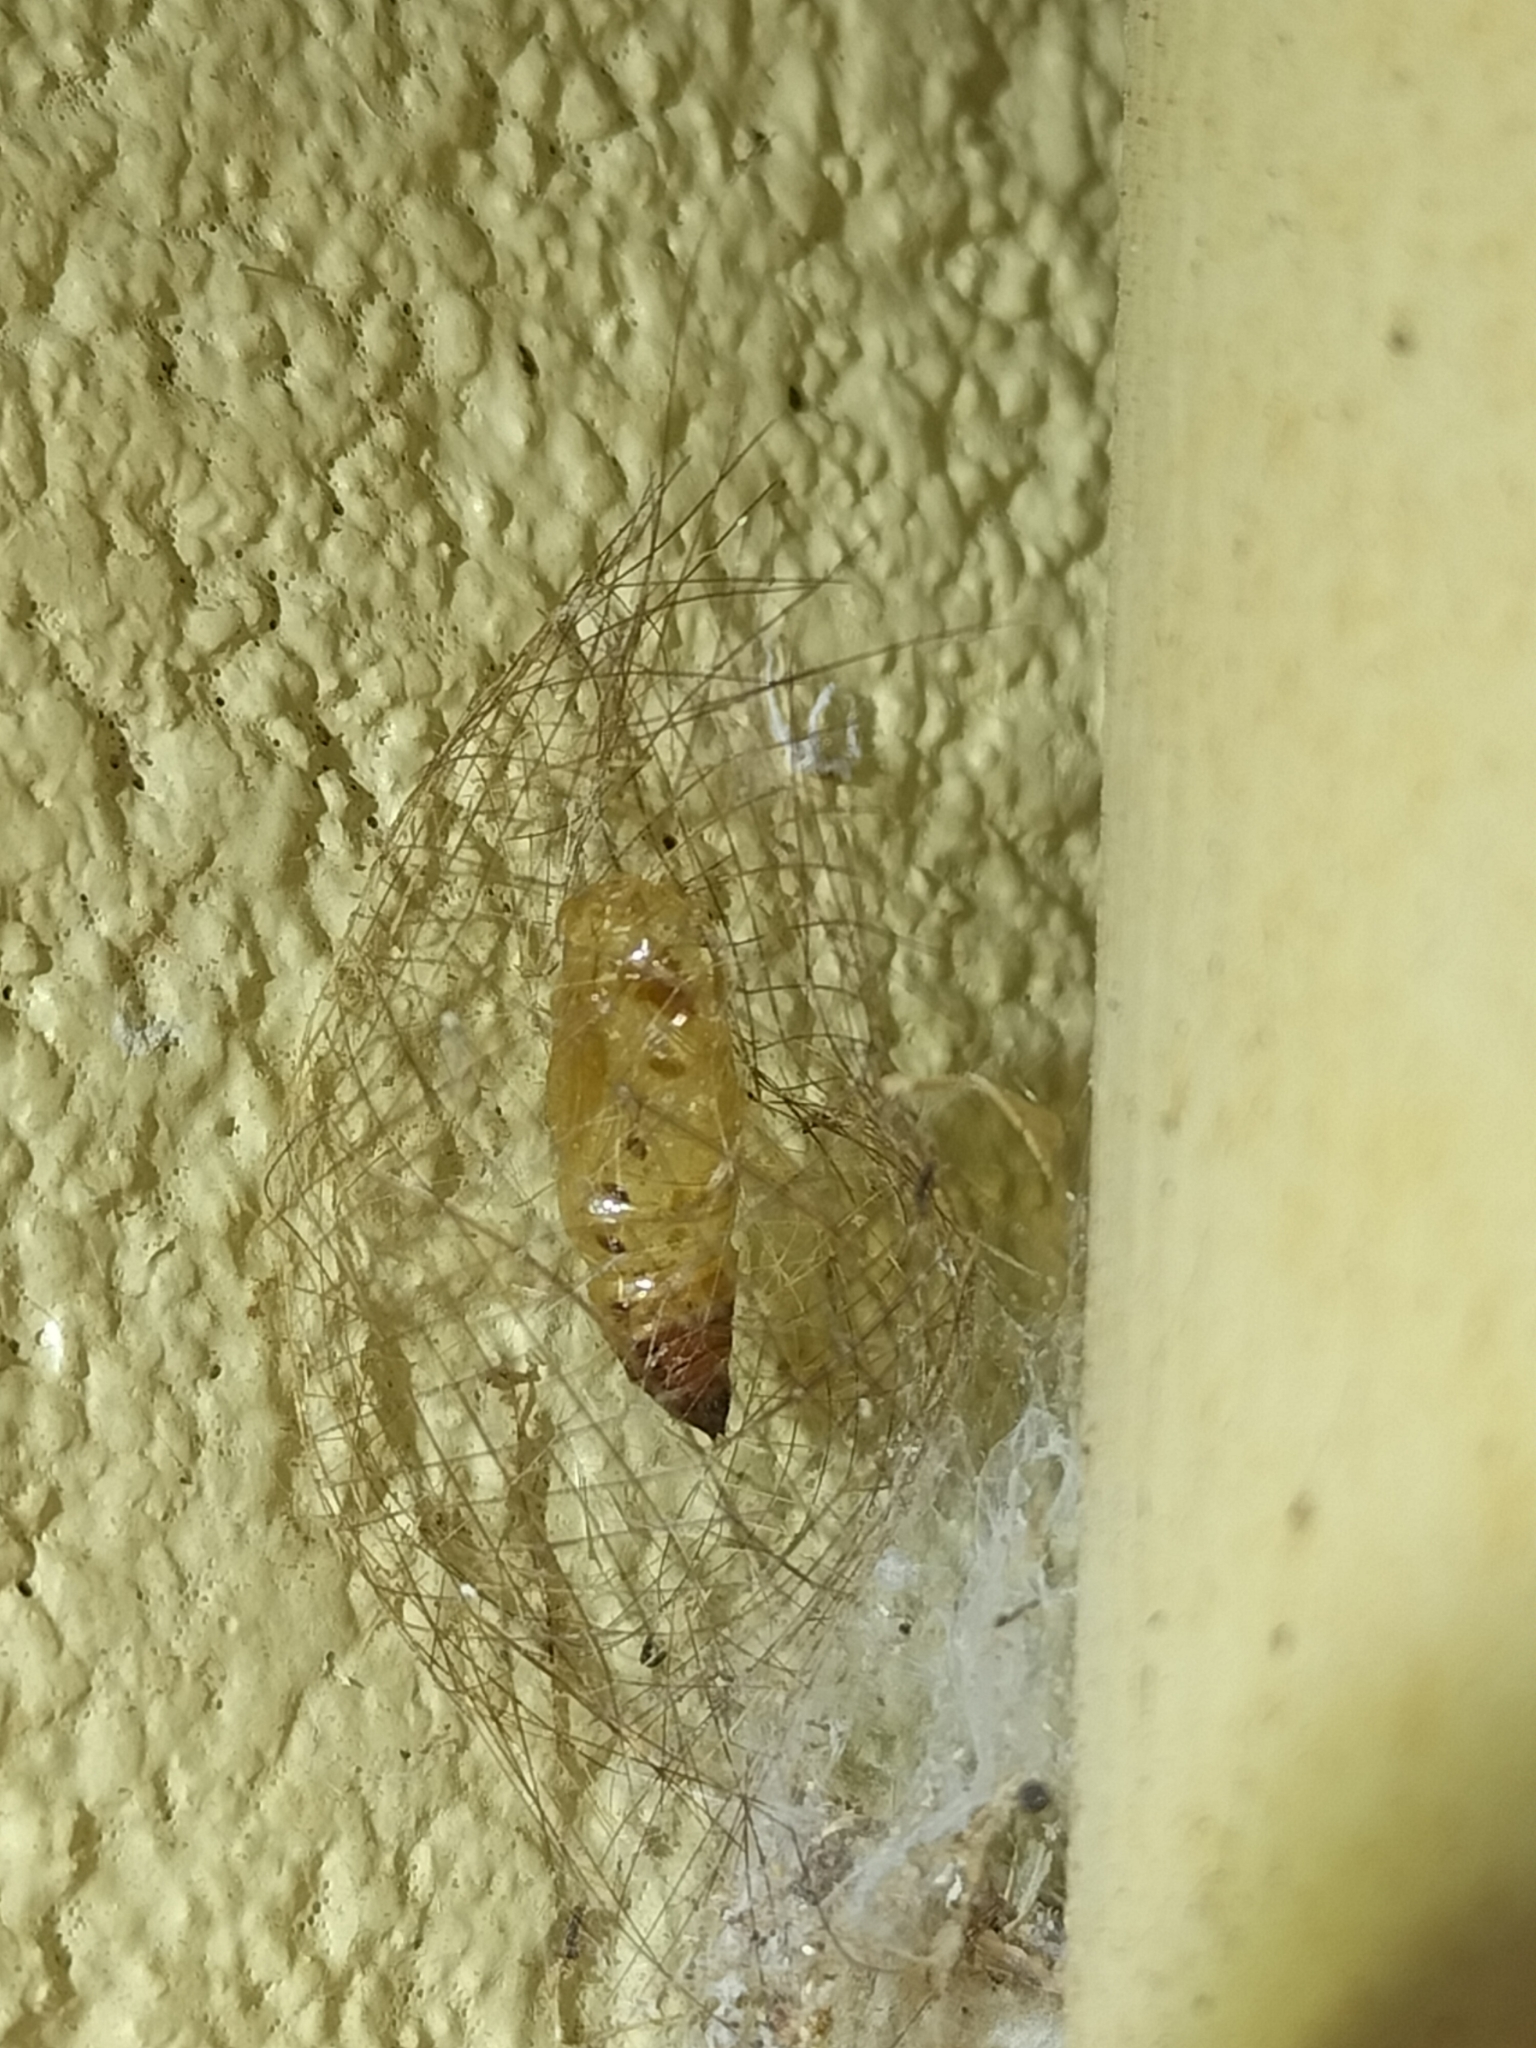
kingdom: Animalia
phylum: Arthropoda
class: Insecta
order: Lepidoptera
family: Erebidae
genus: Cyana
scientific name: Cyana meyricki
